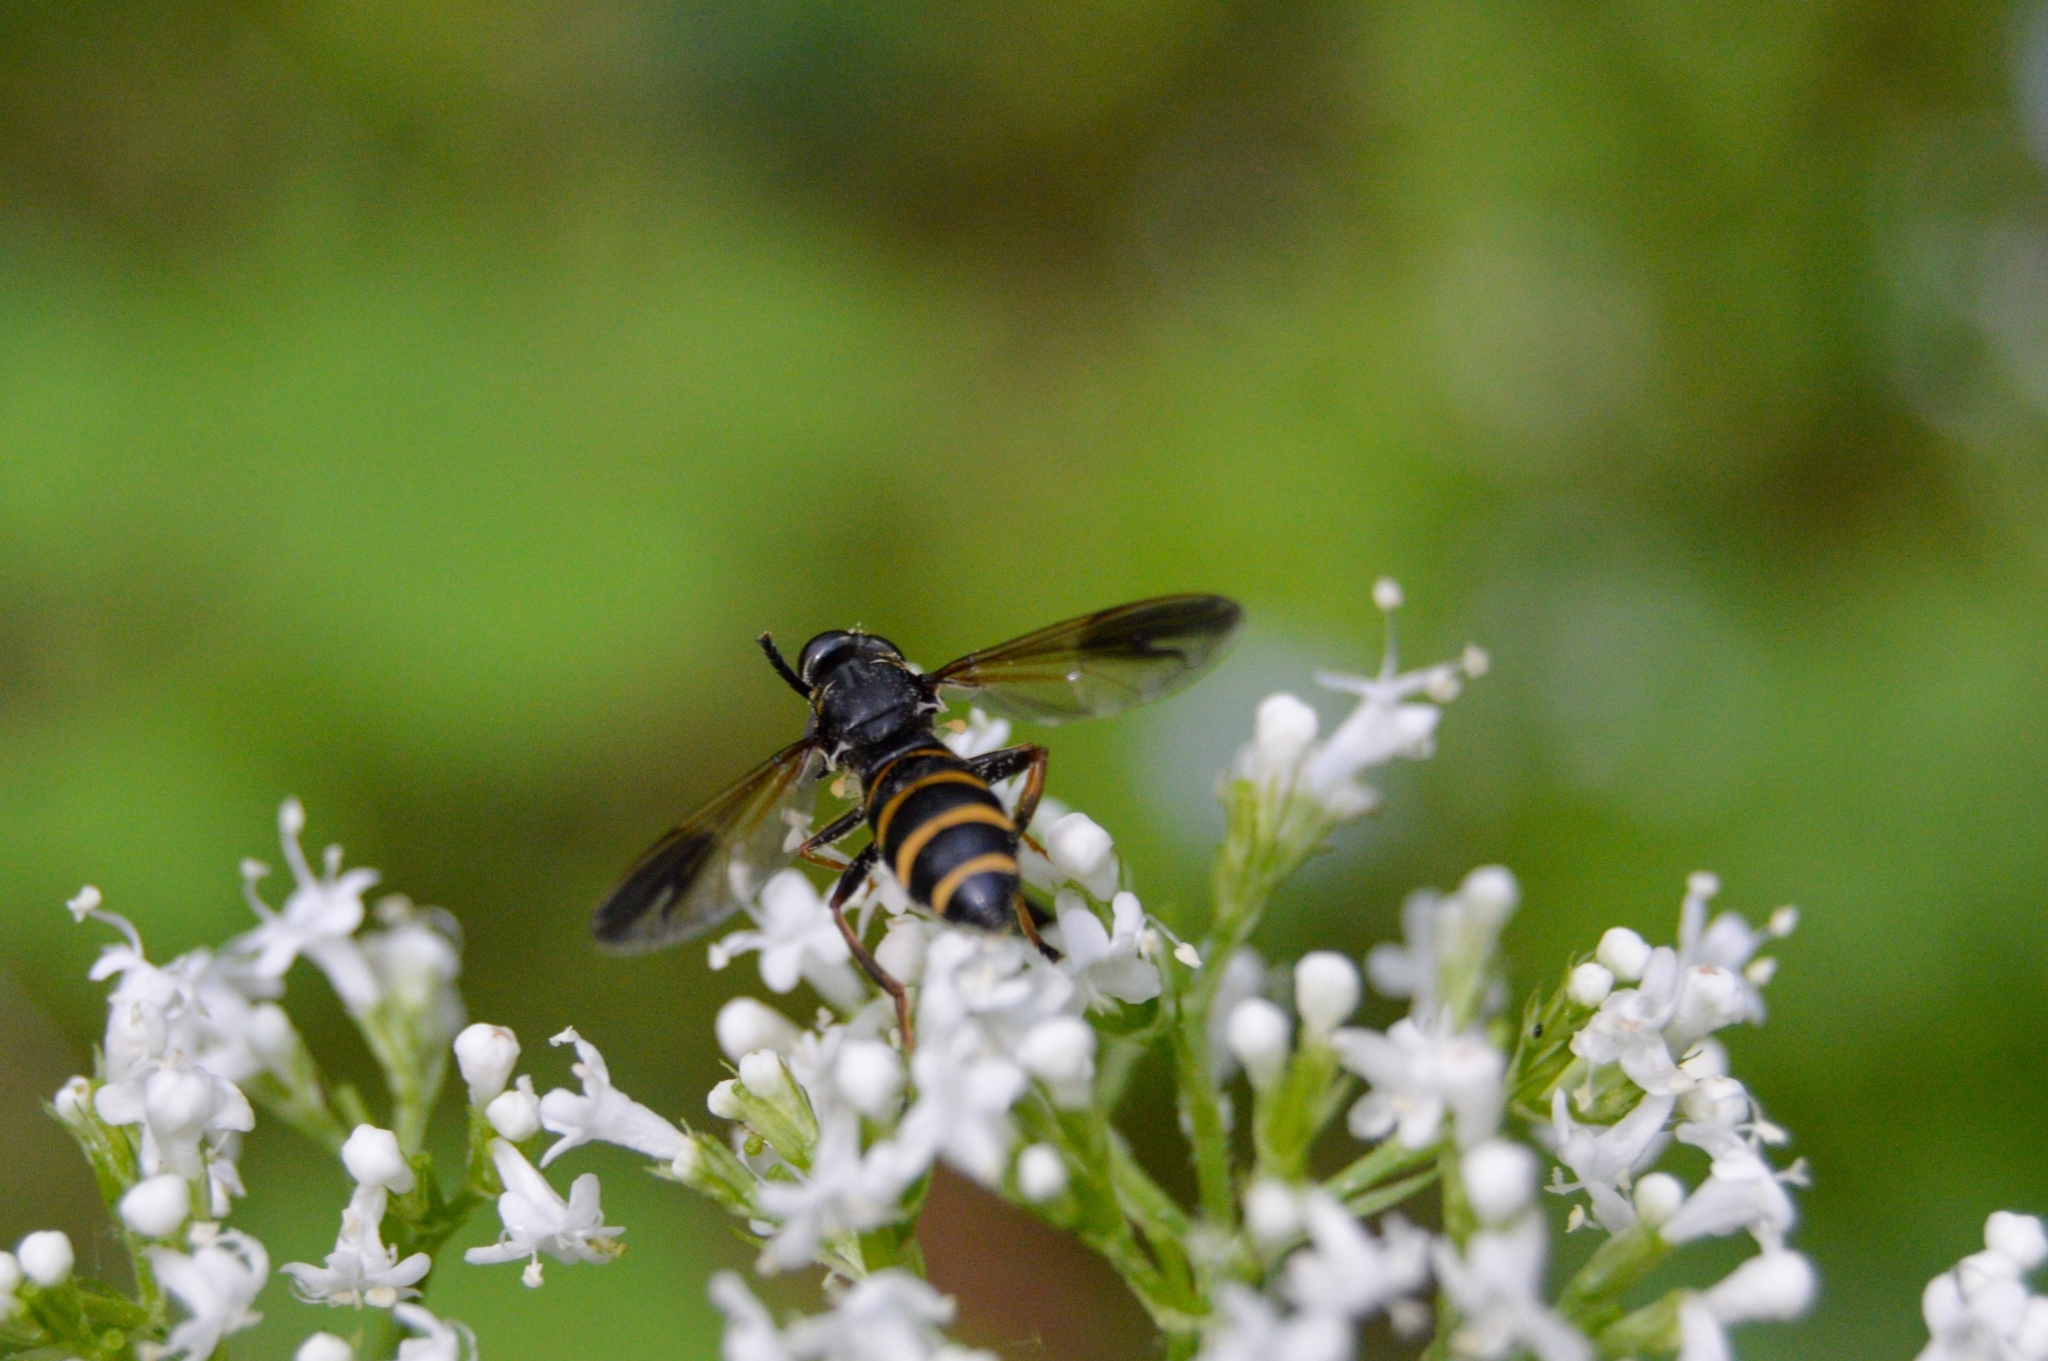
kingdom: Animalia
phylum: Arthropoda
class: Insecta
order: Diptera
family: Syrphidae
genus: Temnostoma
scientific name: Temnostoma angustistriatum
